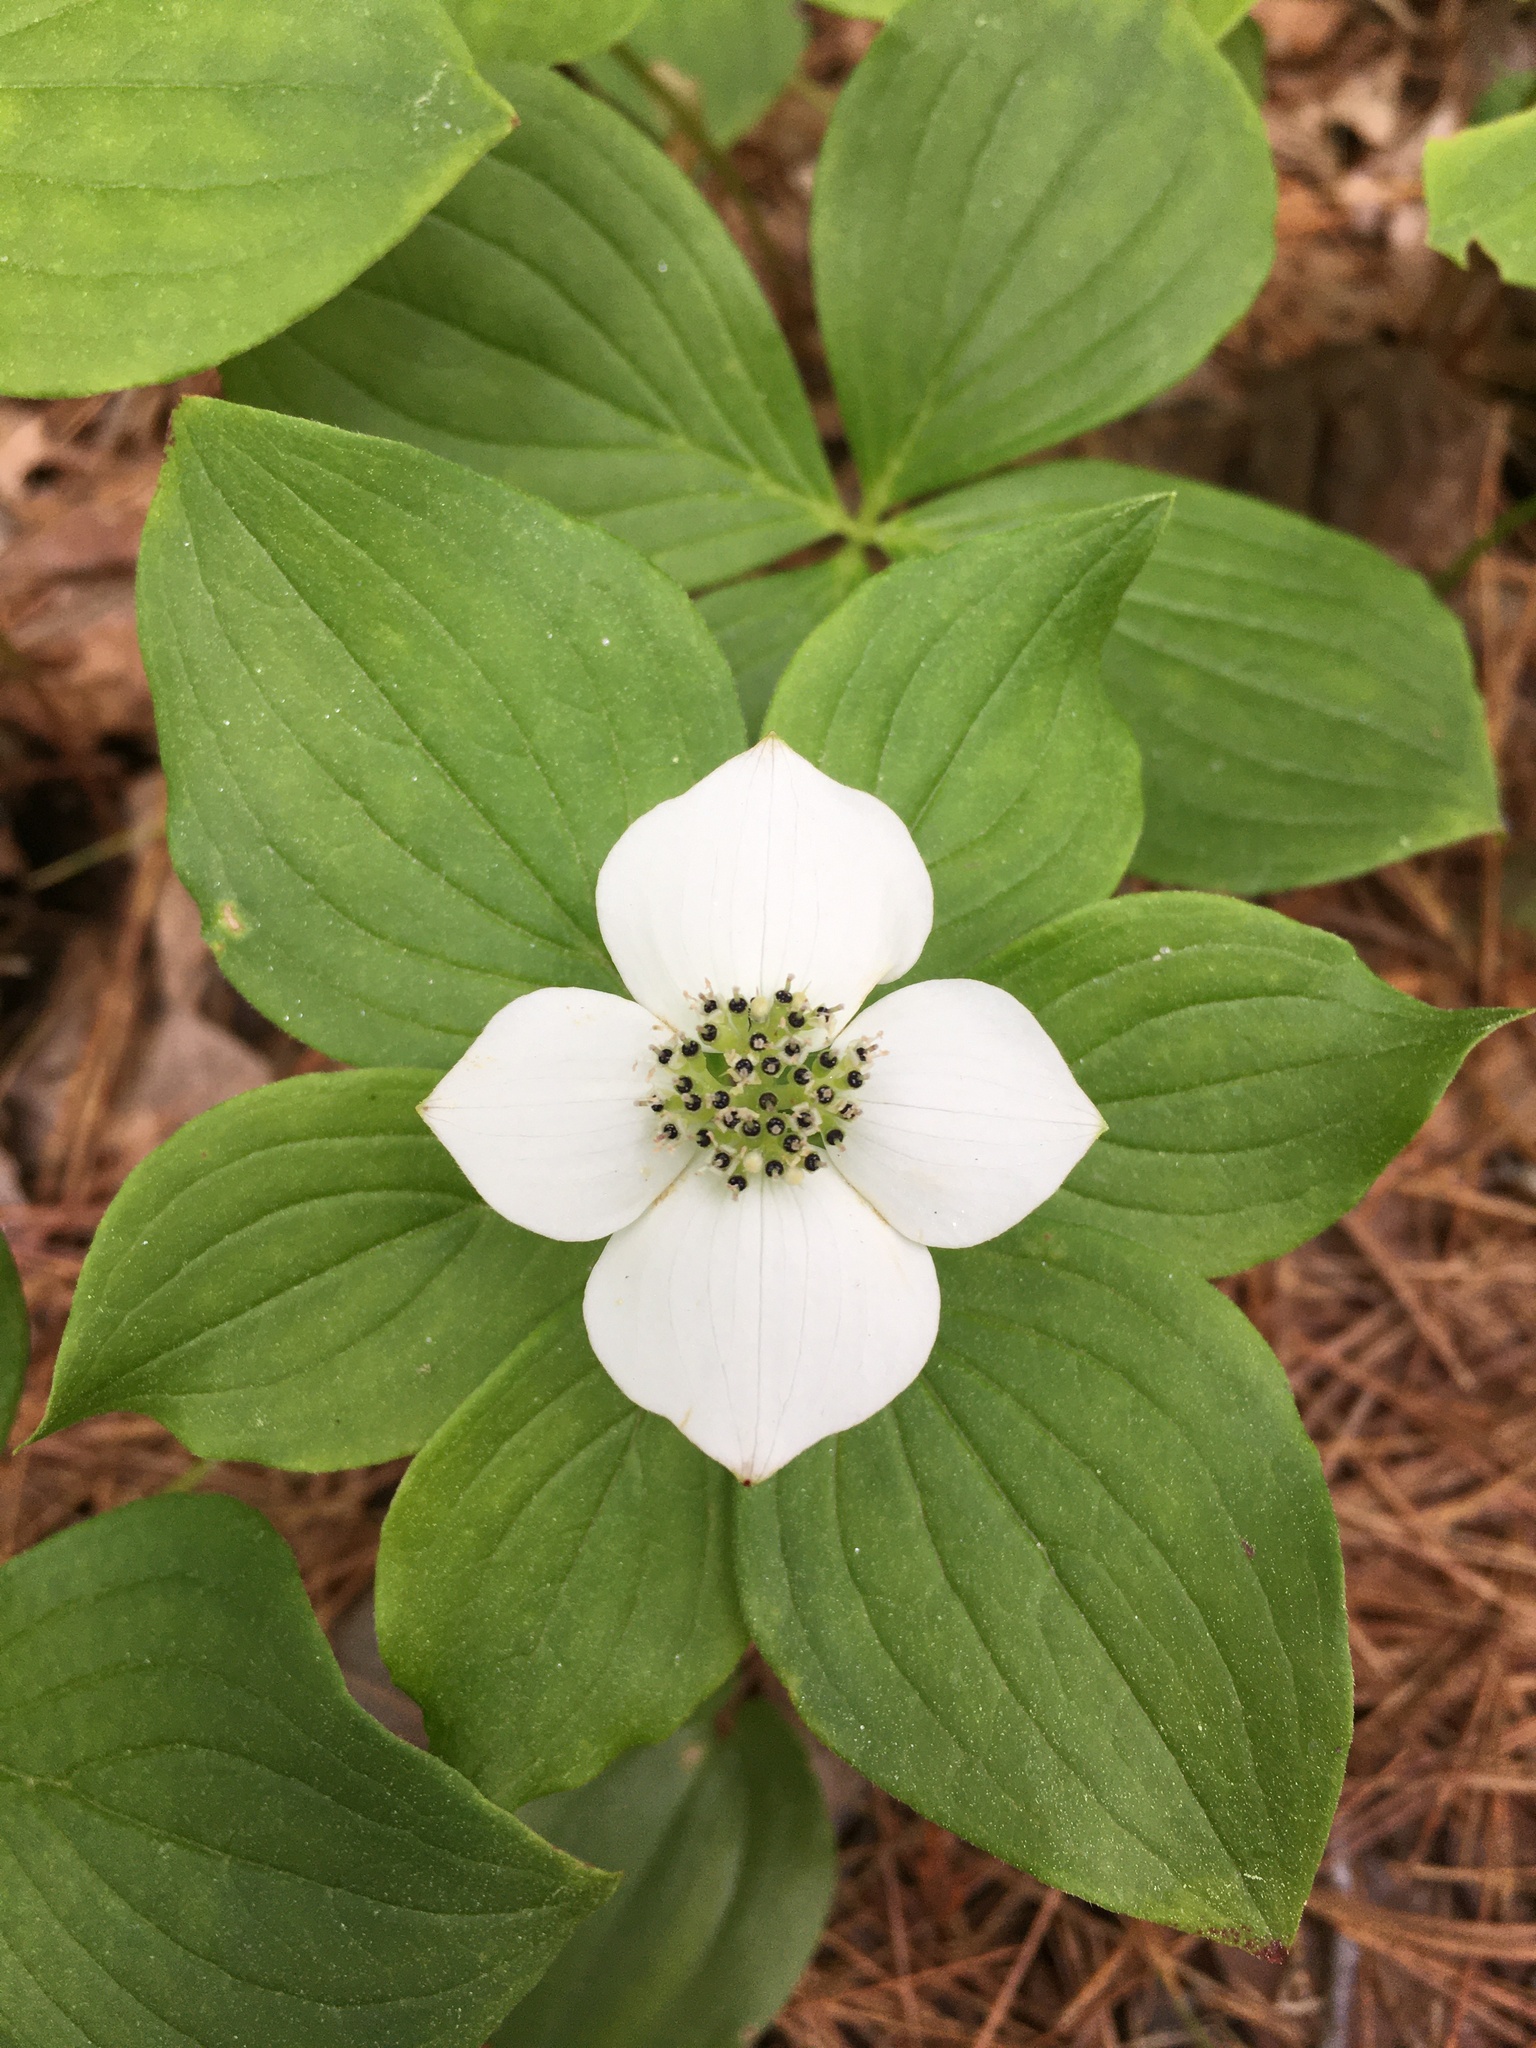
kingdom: Plantae
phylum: Tracheophyta
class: Magnoliopsida
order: Cornales
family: Cornaceae
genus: Cornus
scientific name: Cornus canadensis
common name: Creeping dogwood
